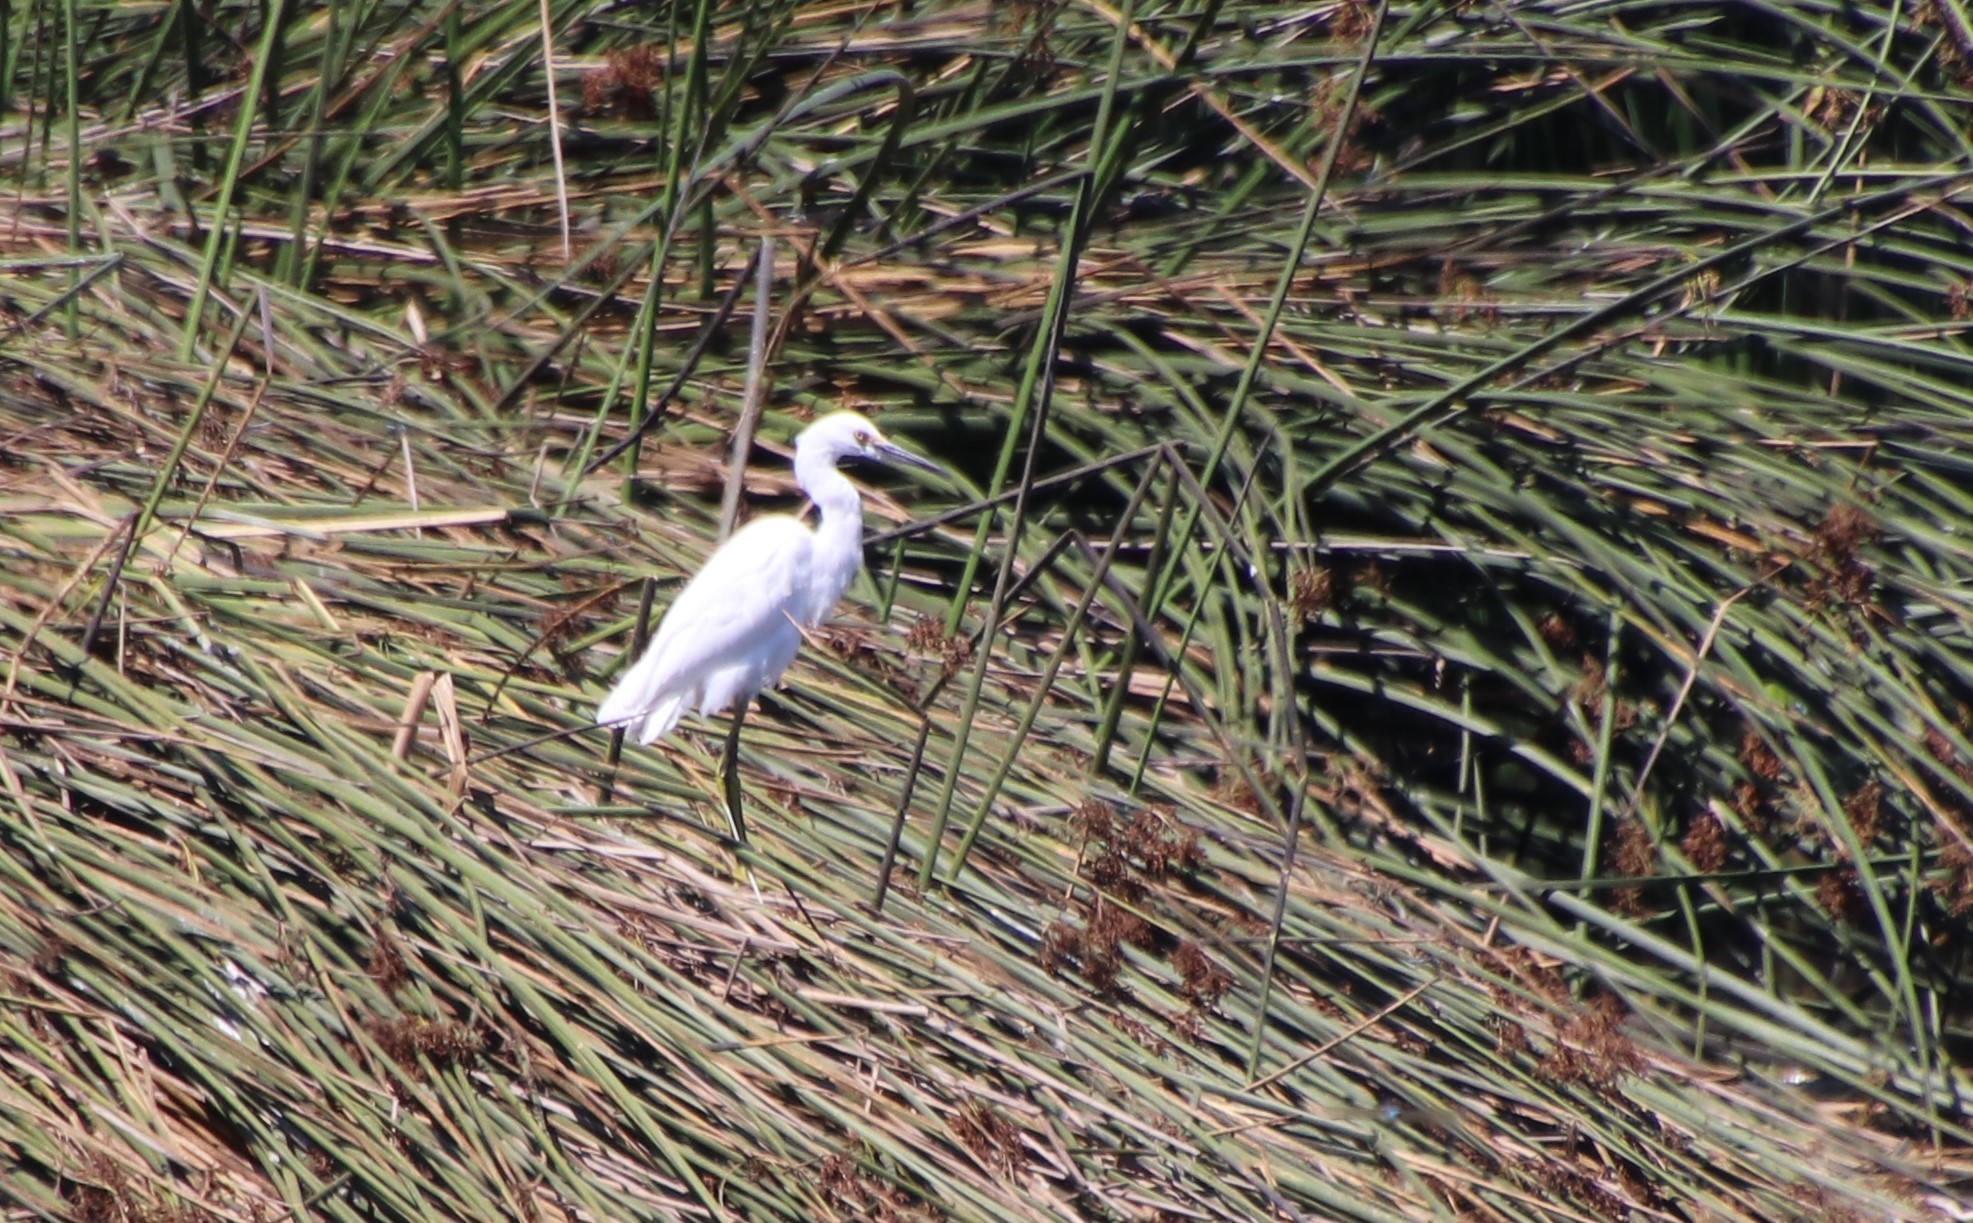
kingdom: Animalia
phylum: Chordata
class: Aves
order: Pelecaniformes
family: Ardeidae
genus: Egretta
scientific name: Egretta thula
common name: Snowy egret
